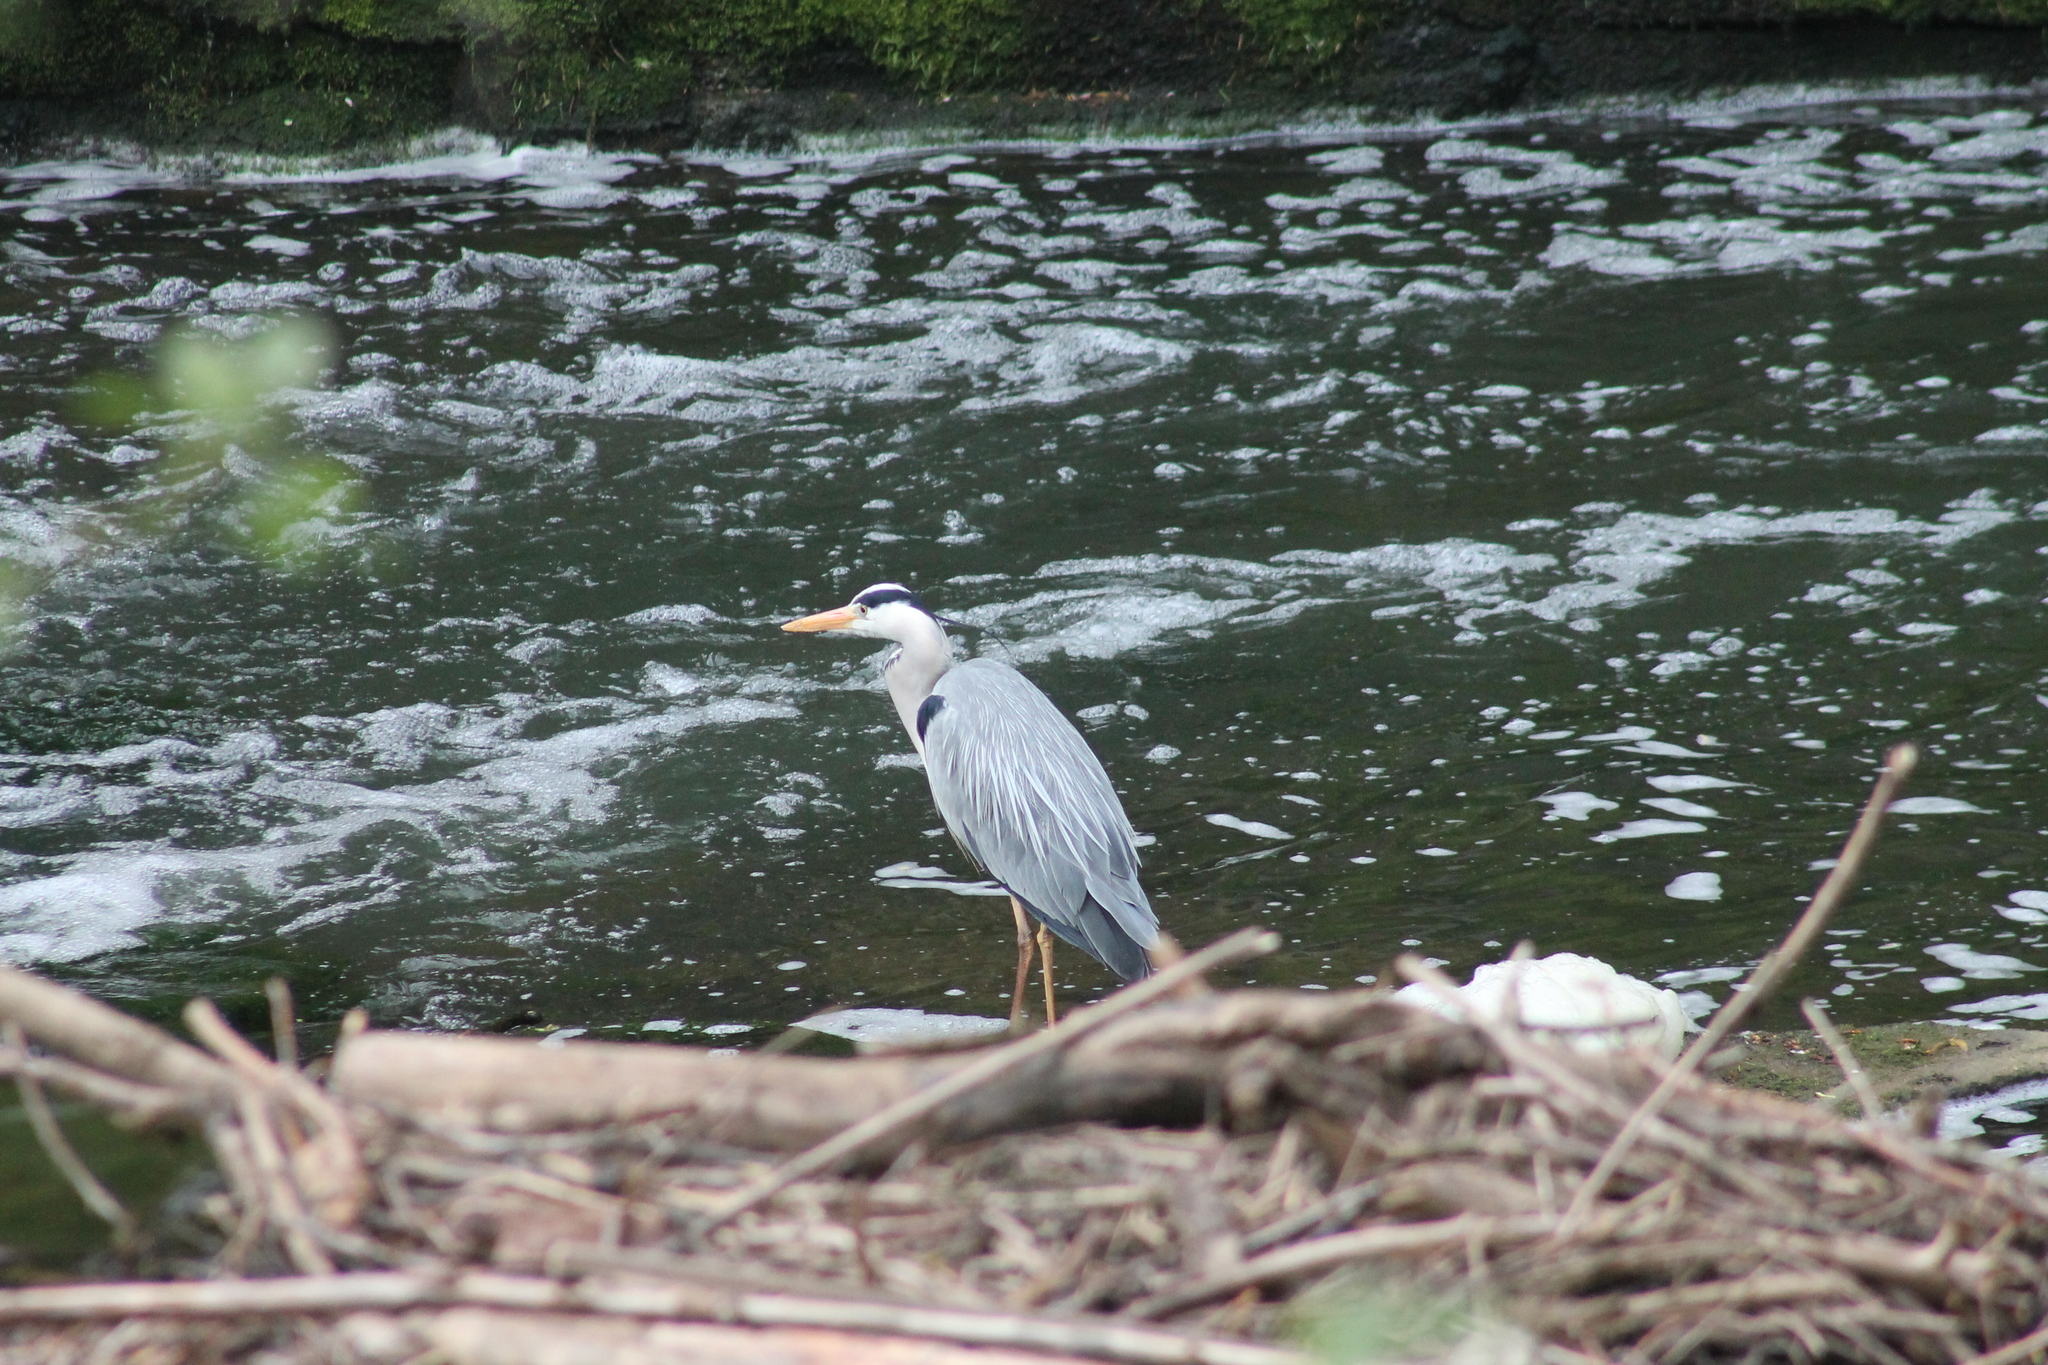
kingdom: Animalia
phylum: Chordata
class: Aves
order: Pelecaniformes
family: Ardeidae
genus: Ardea
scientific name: Ardea cinerea
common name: Grey heron
